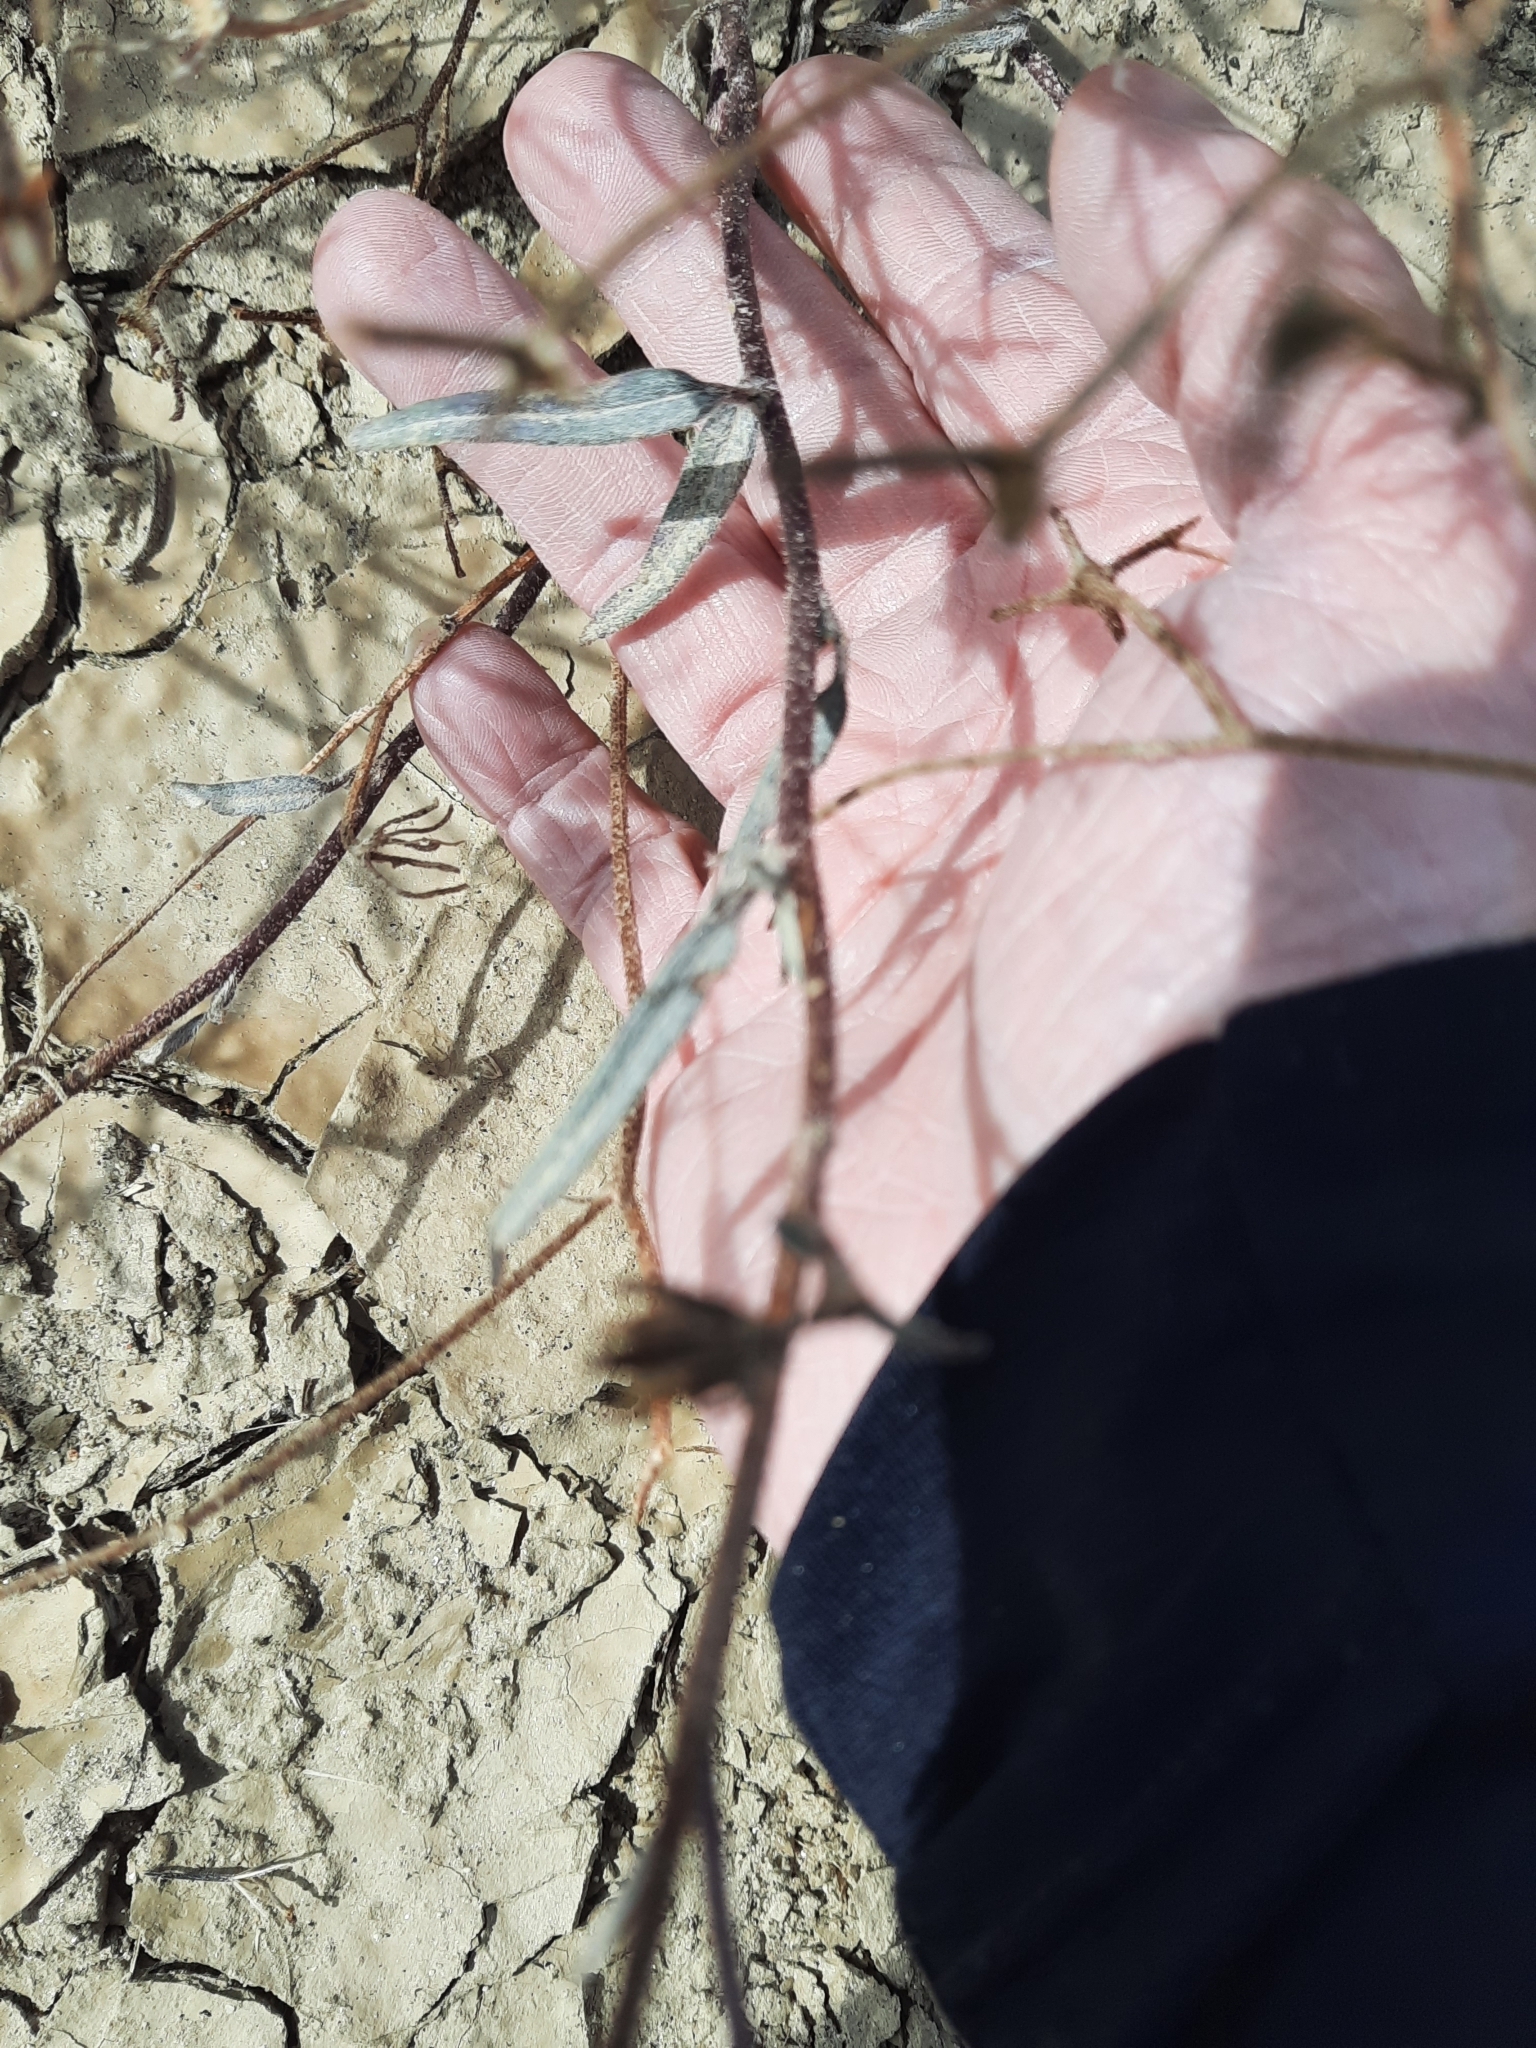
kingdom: Plantae
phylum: Tracheophyta
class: Magnoliopsida
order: Asterales
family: Asteraceae
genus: Palafoxia
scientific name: Palafoxia arida
